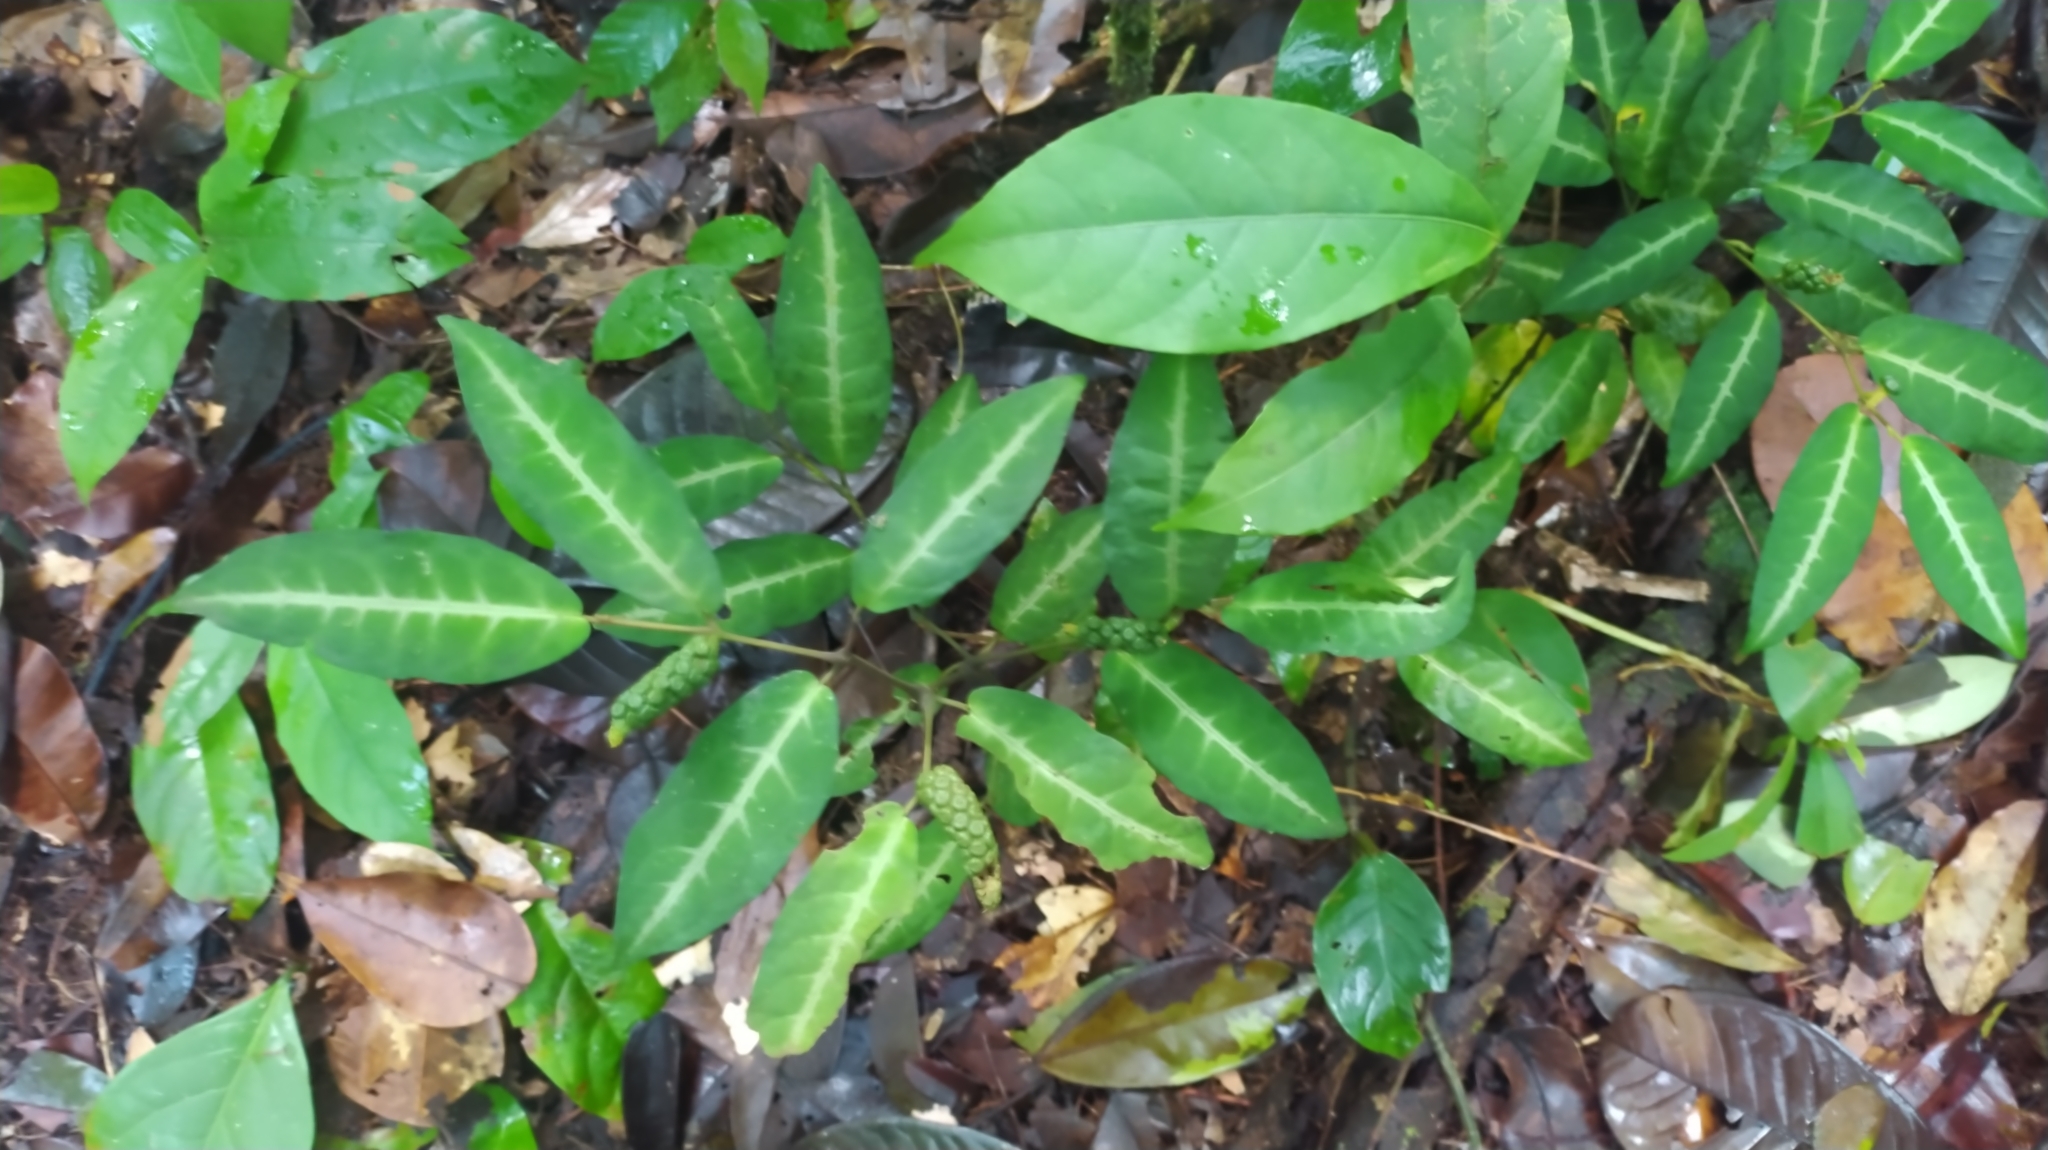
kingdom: Plantae
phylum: Tracheophyta
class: Magnoliopsida
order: Piperales
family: Piperaceae
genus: Piper
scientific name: Piper consanguineum
